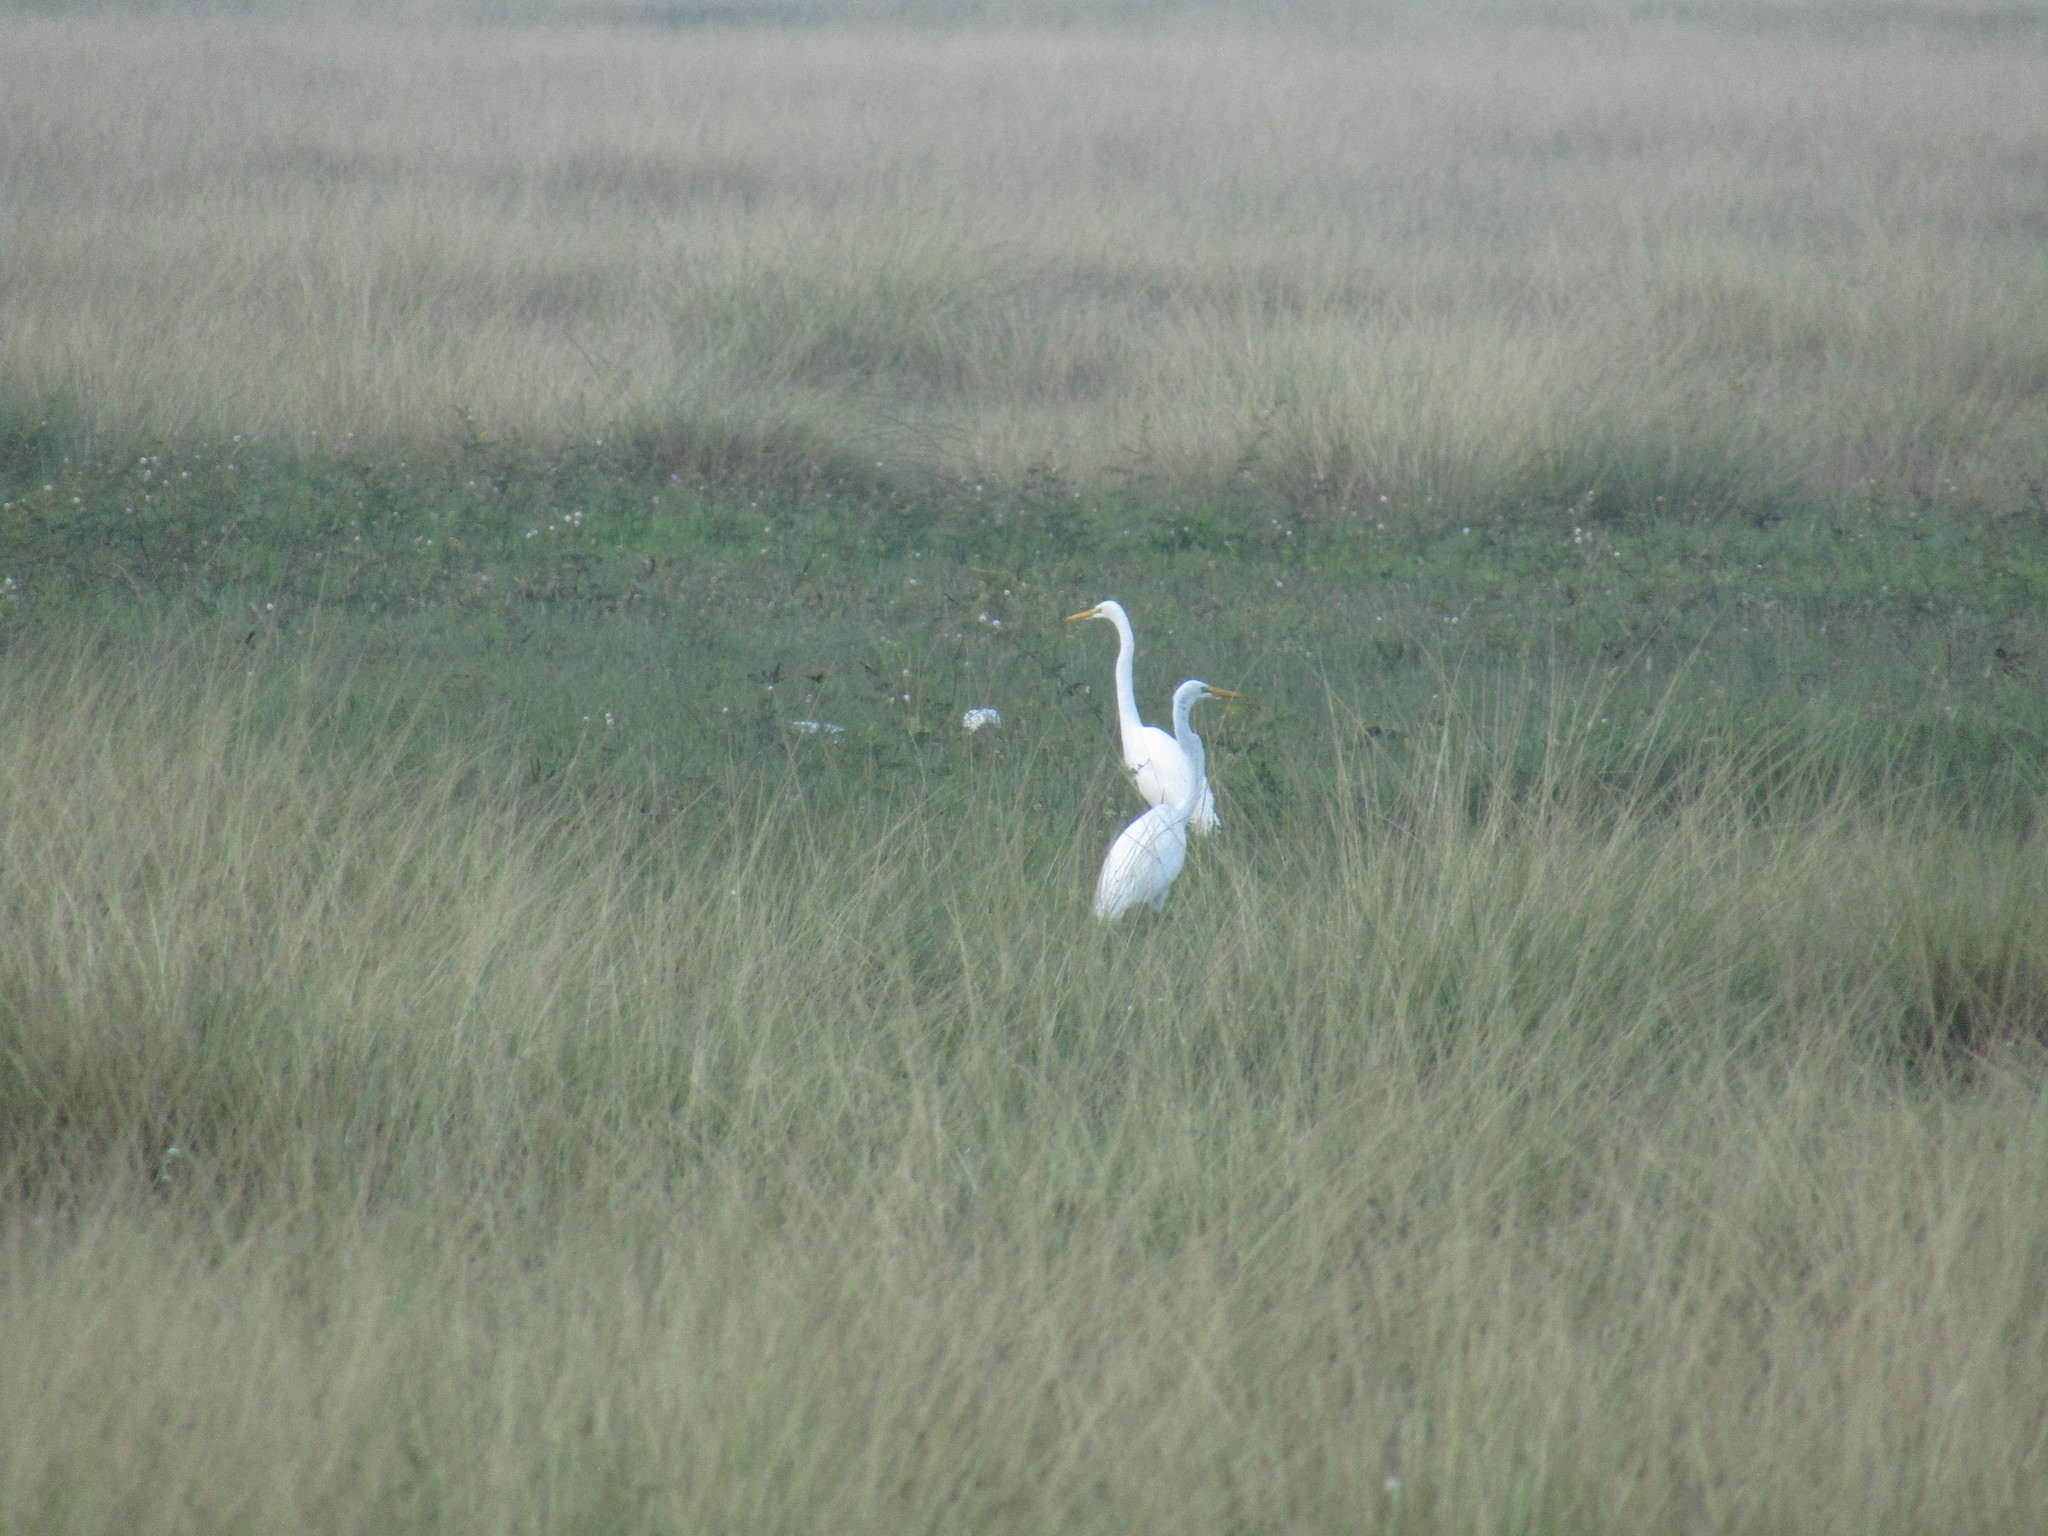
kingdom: Animalia
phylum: Chordata
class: Aves
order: Pelecaniformes
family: Ardeidae
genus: Ardea
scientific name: Ardea alba
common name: Great egret
